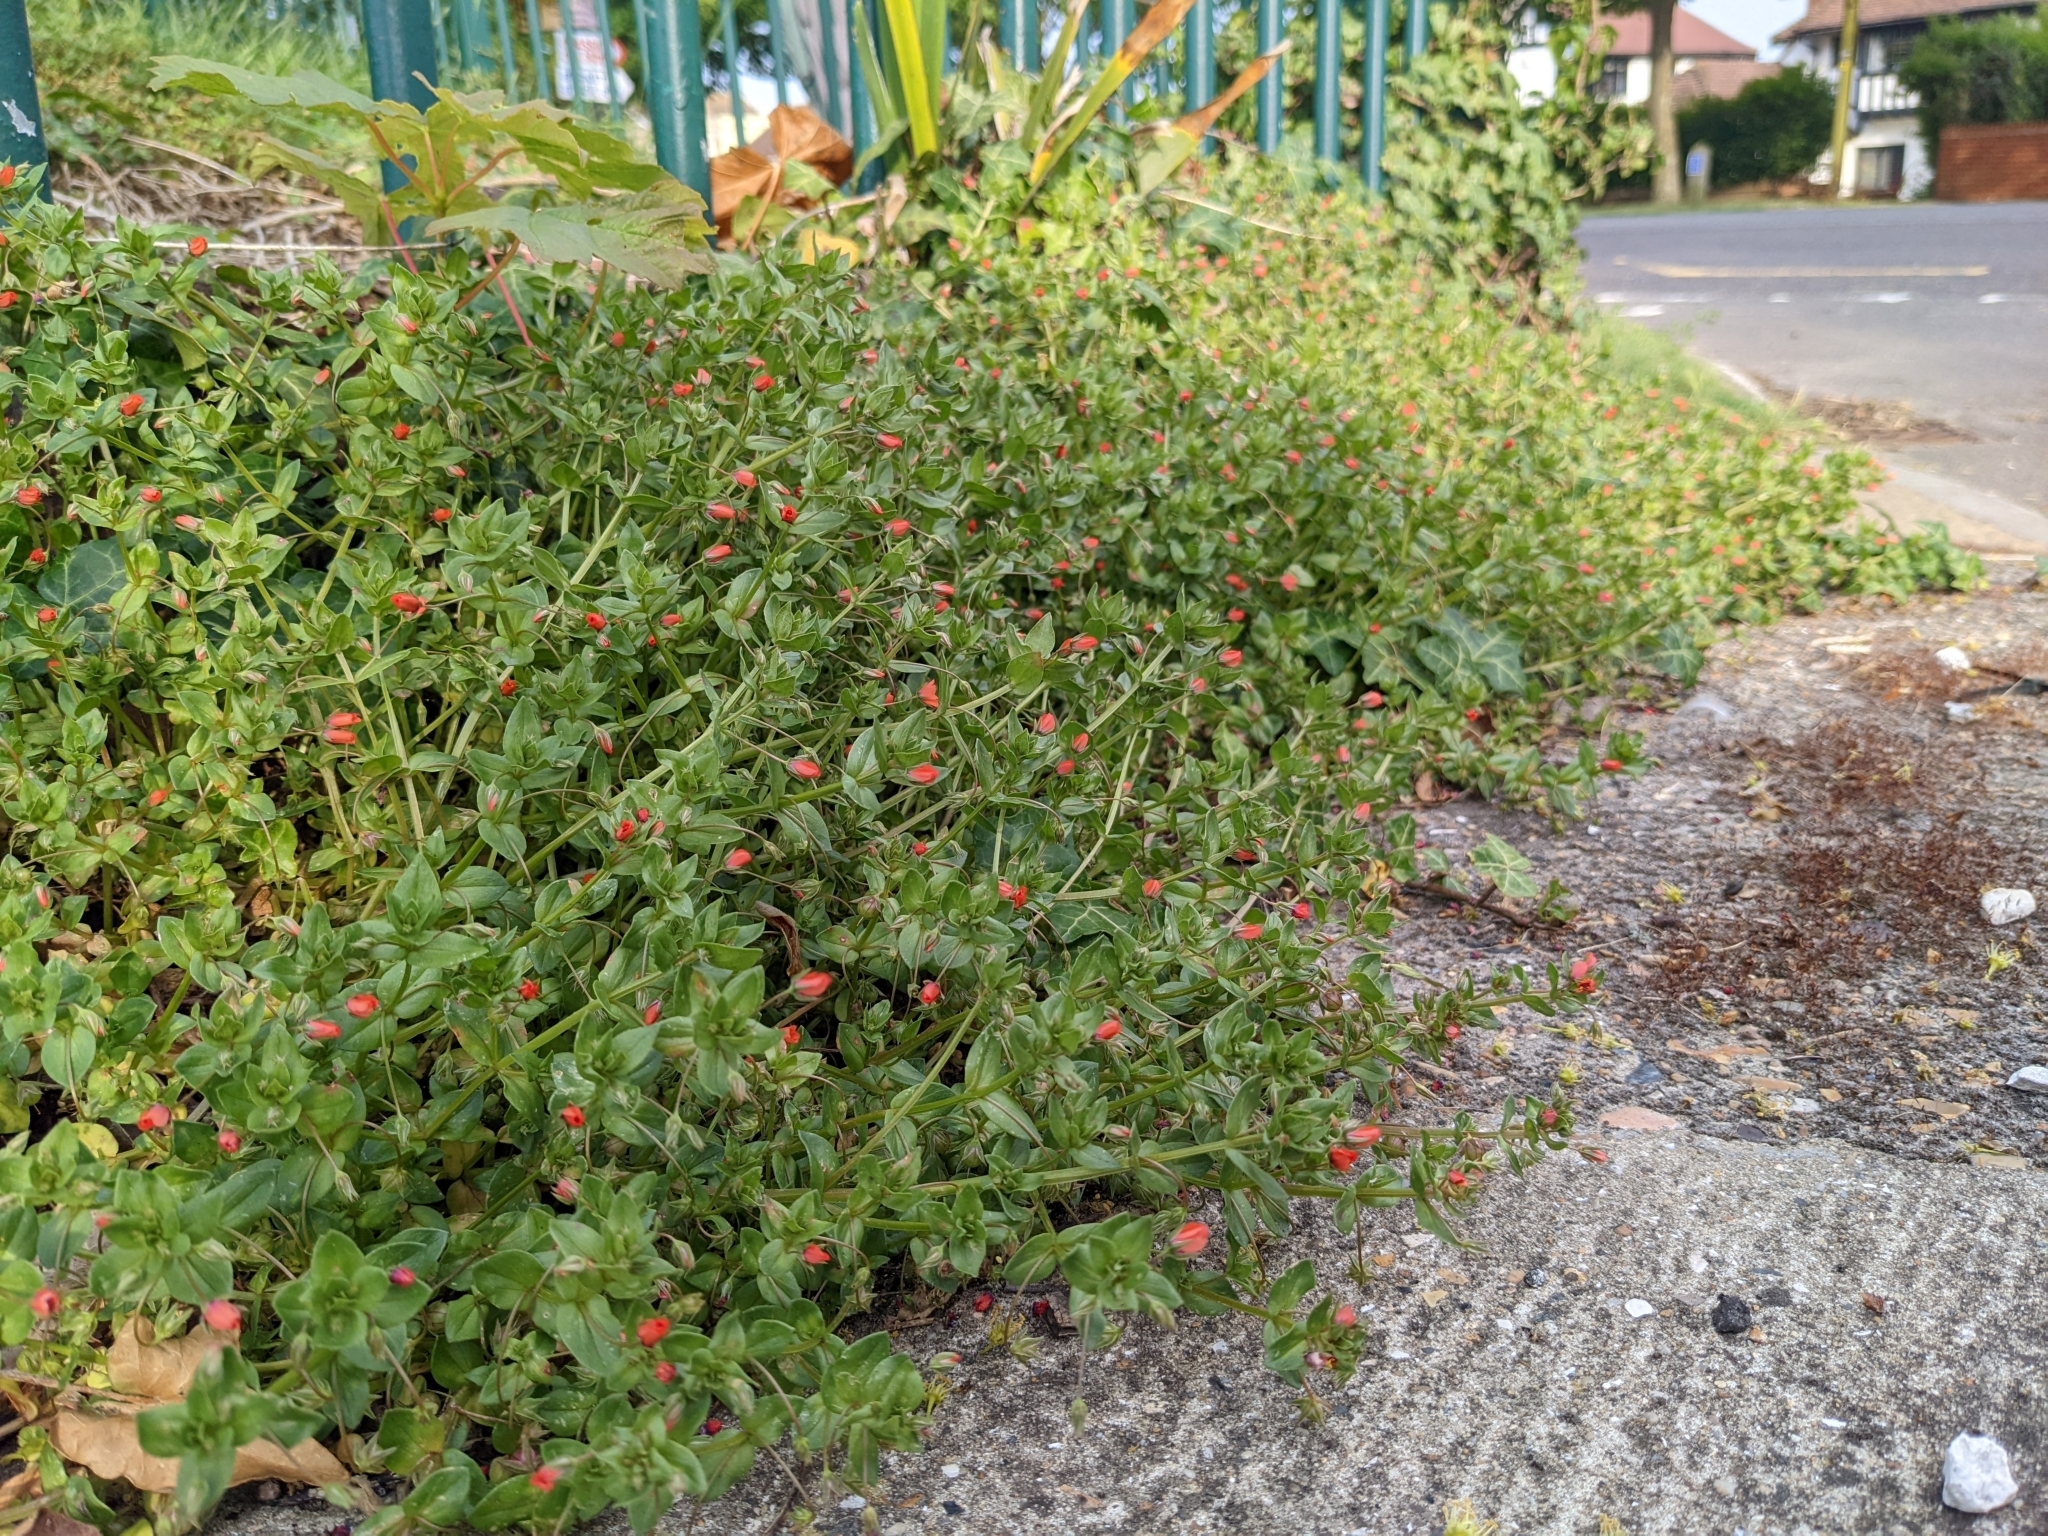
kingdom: Plantae
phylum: Tracheophyta
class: Magnoliopsida
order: Ericales
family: Primulaceae
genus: Lysimachia
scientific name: Lysimachia arvensis
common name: Scarlet pimpernel
